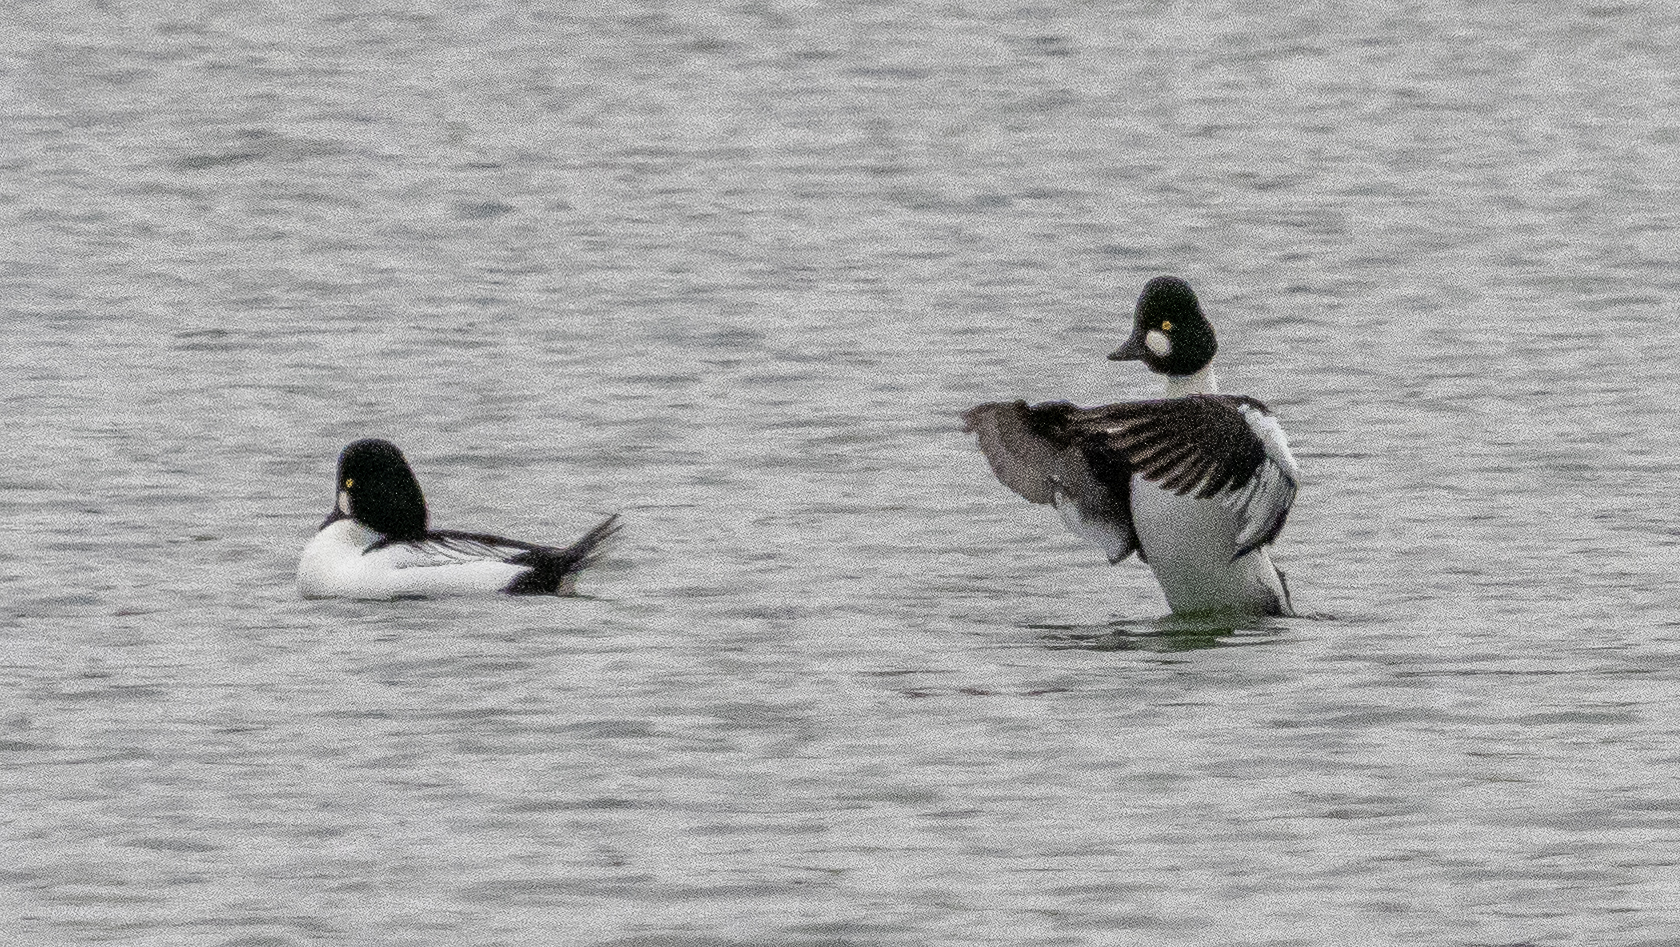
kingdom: Animalia
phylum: Chordata
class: Aves
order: Anseriformes
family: Anatidae
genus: Bucephala
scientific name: Bucephala clangula
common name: Common goldeneye
